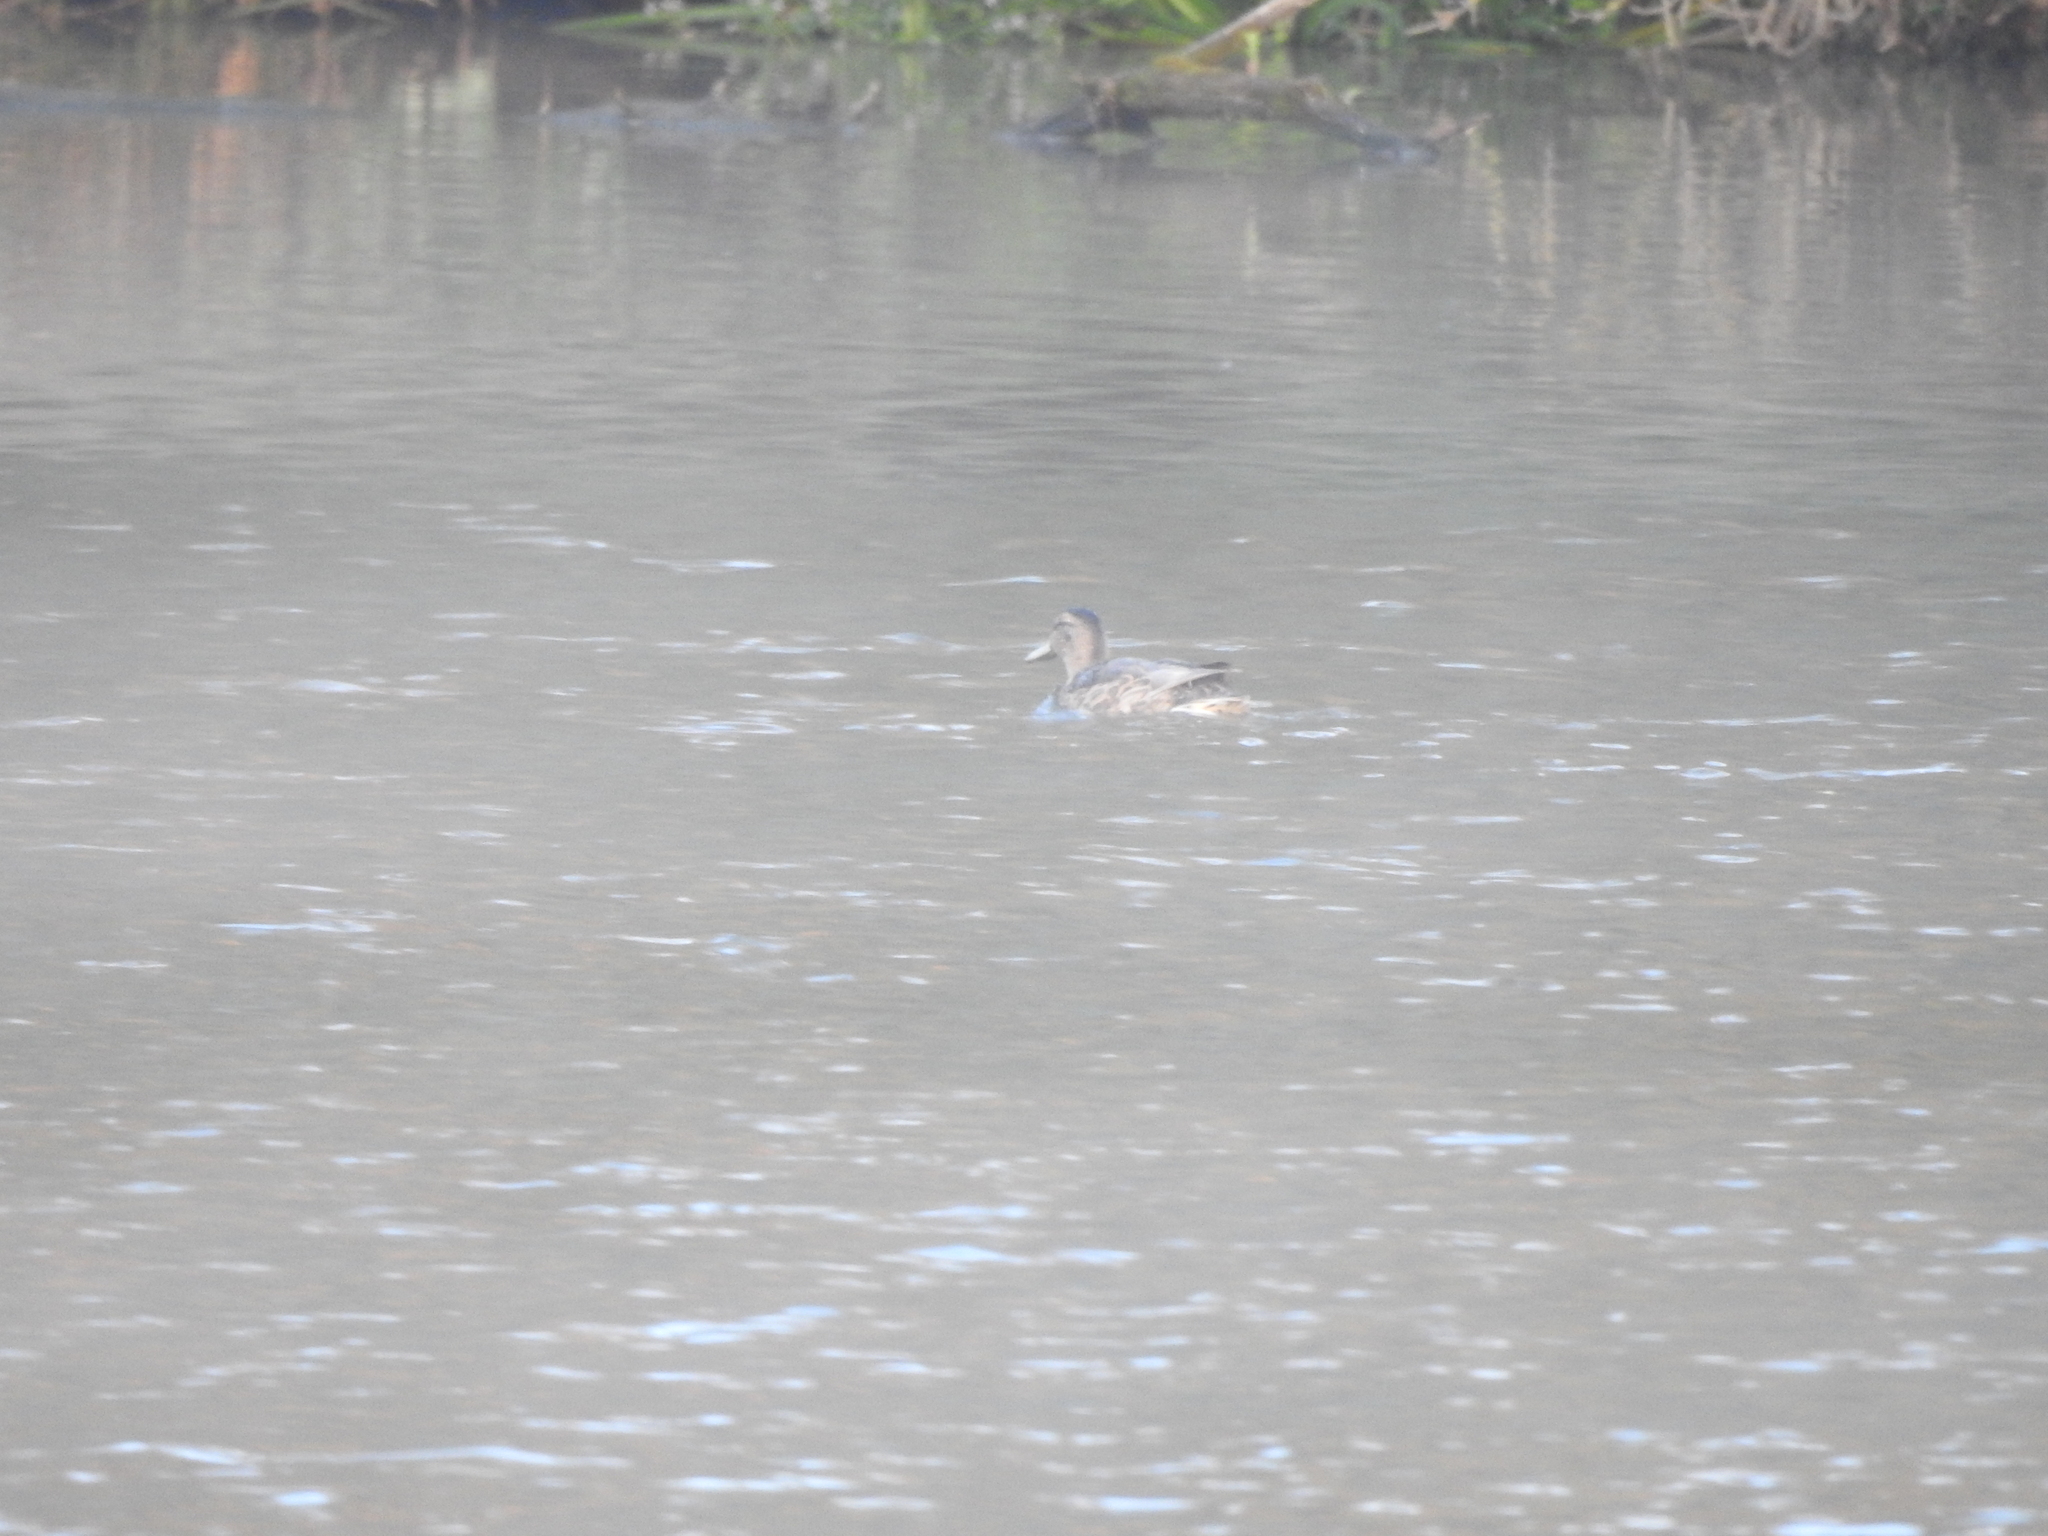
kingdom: Animalia
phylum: Chordata
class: Aves
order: Anseriformes
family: Anatidae
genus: Anas
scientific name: Anas platyrhynchos
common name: Mallard
